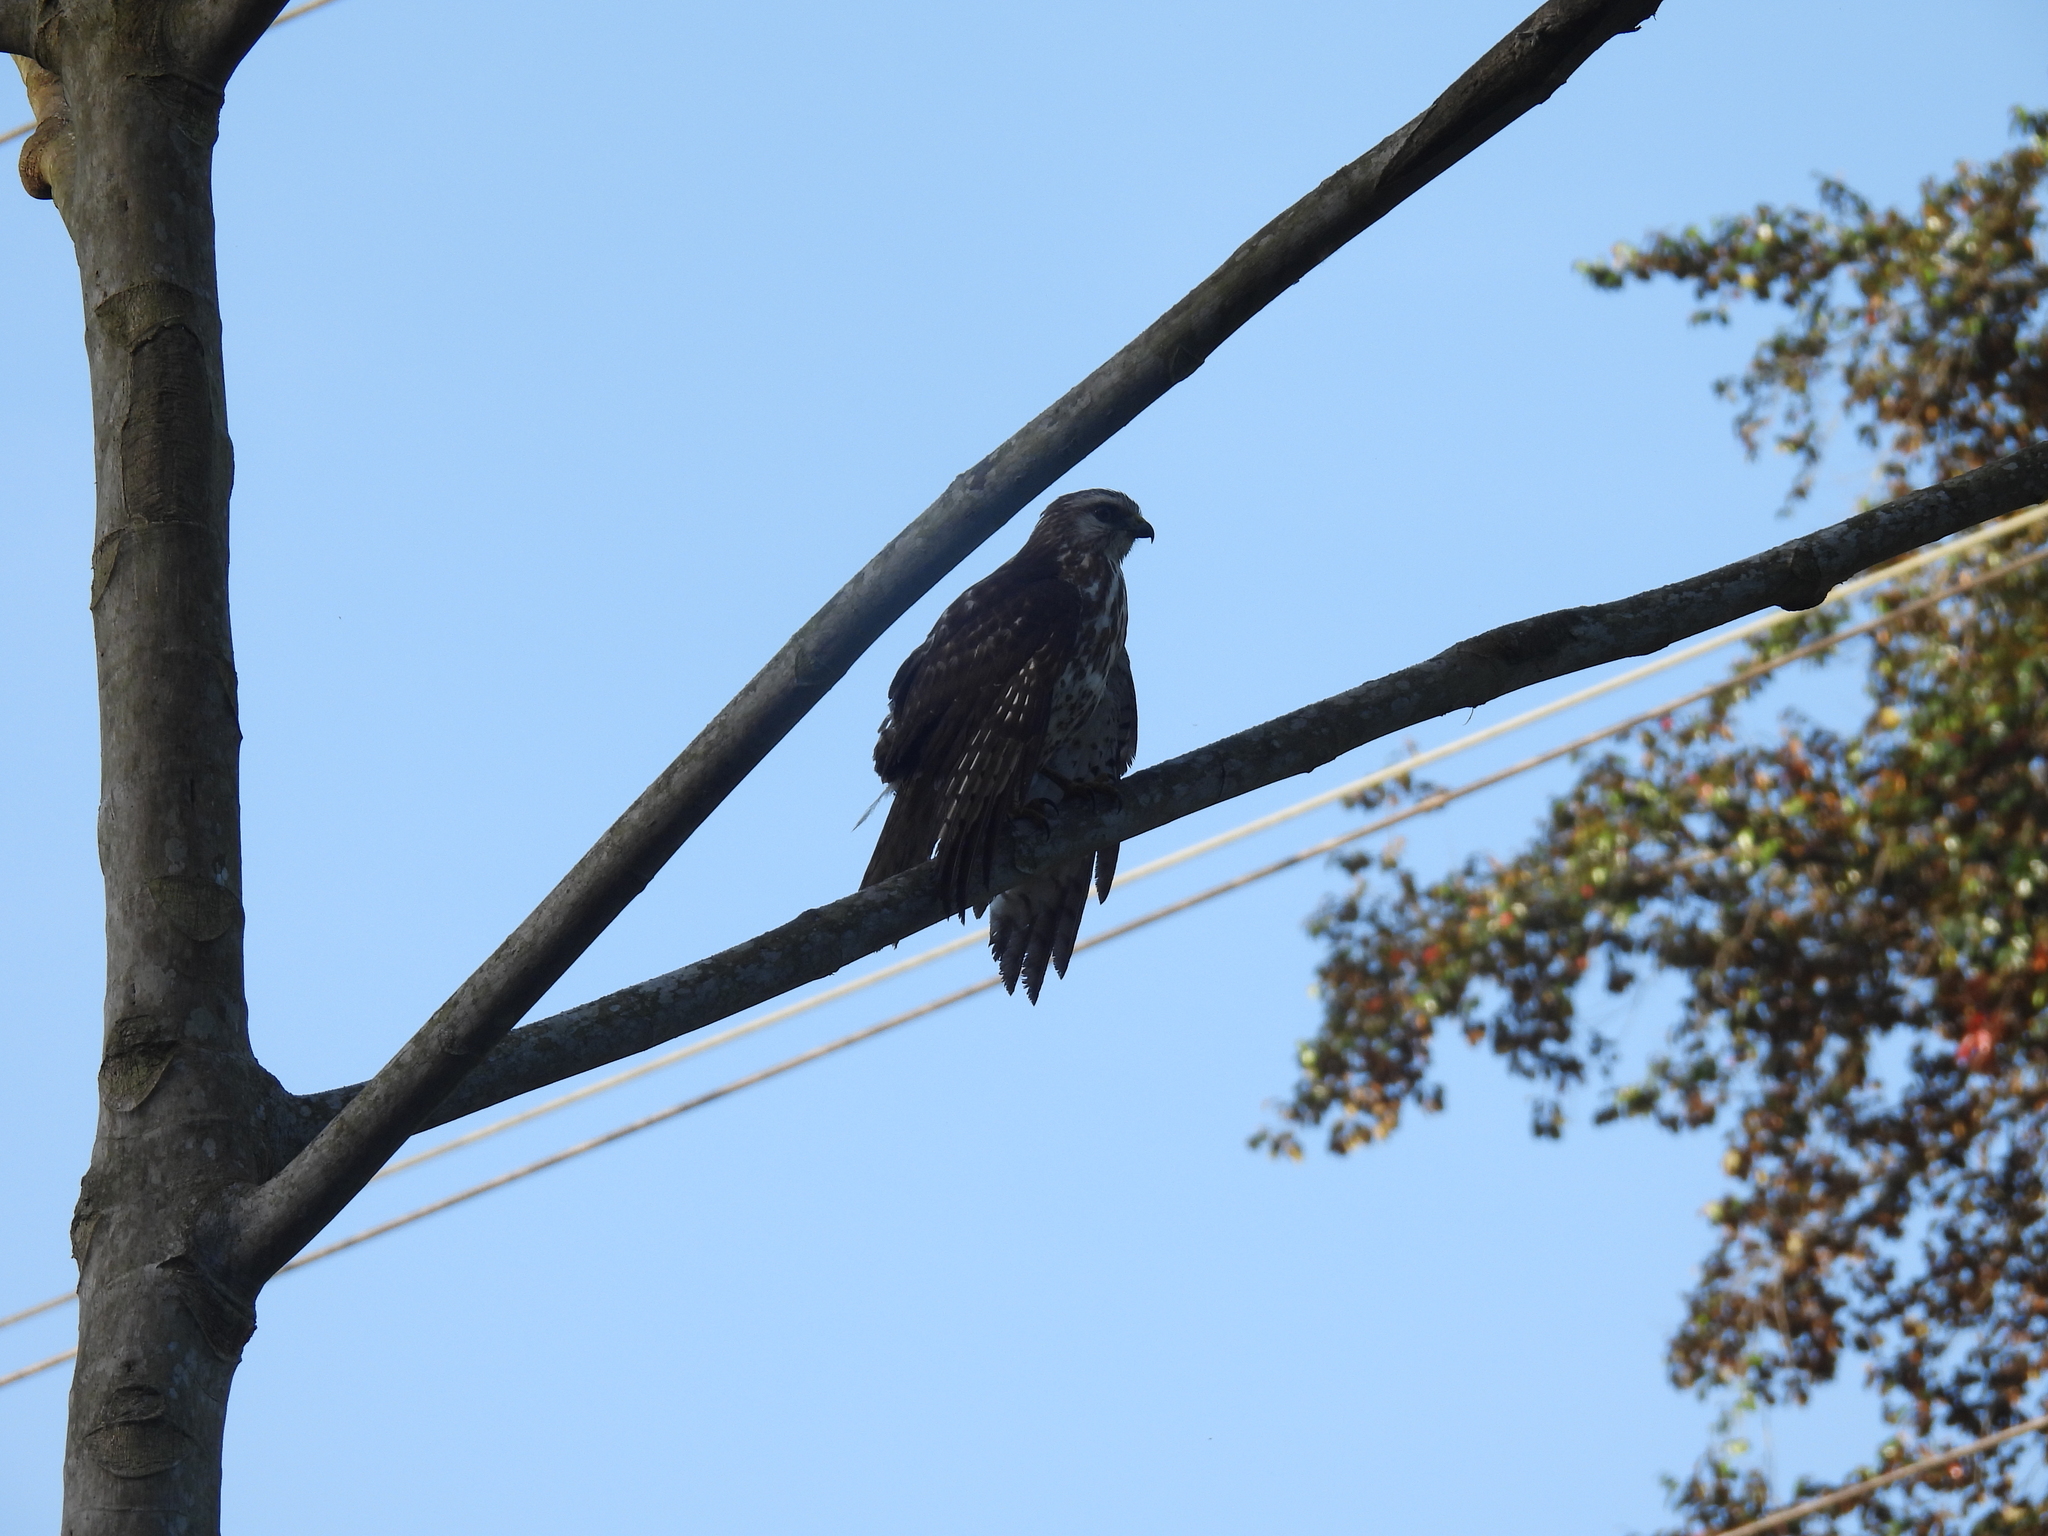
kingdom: Animalia
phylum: Chordata
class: Aves
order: Accipitriformes
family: Accipitridae
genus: Buteo
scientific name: Buteo platypterus
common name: Broad-winged hawk
